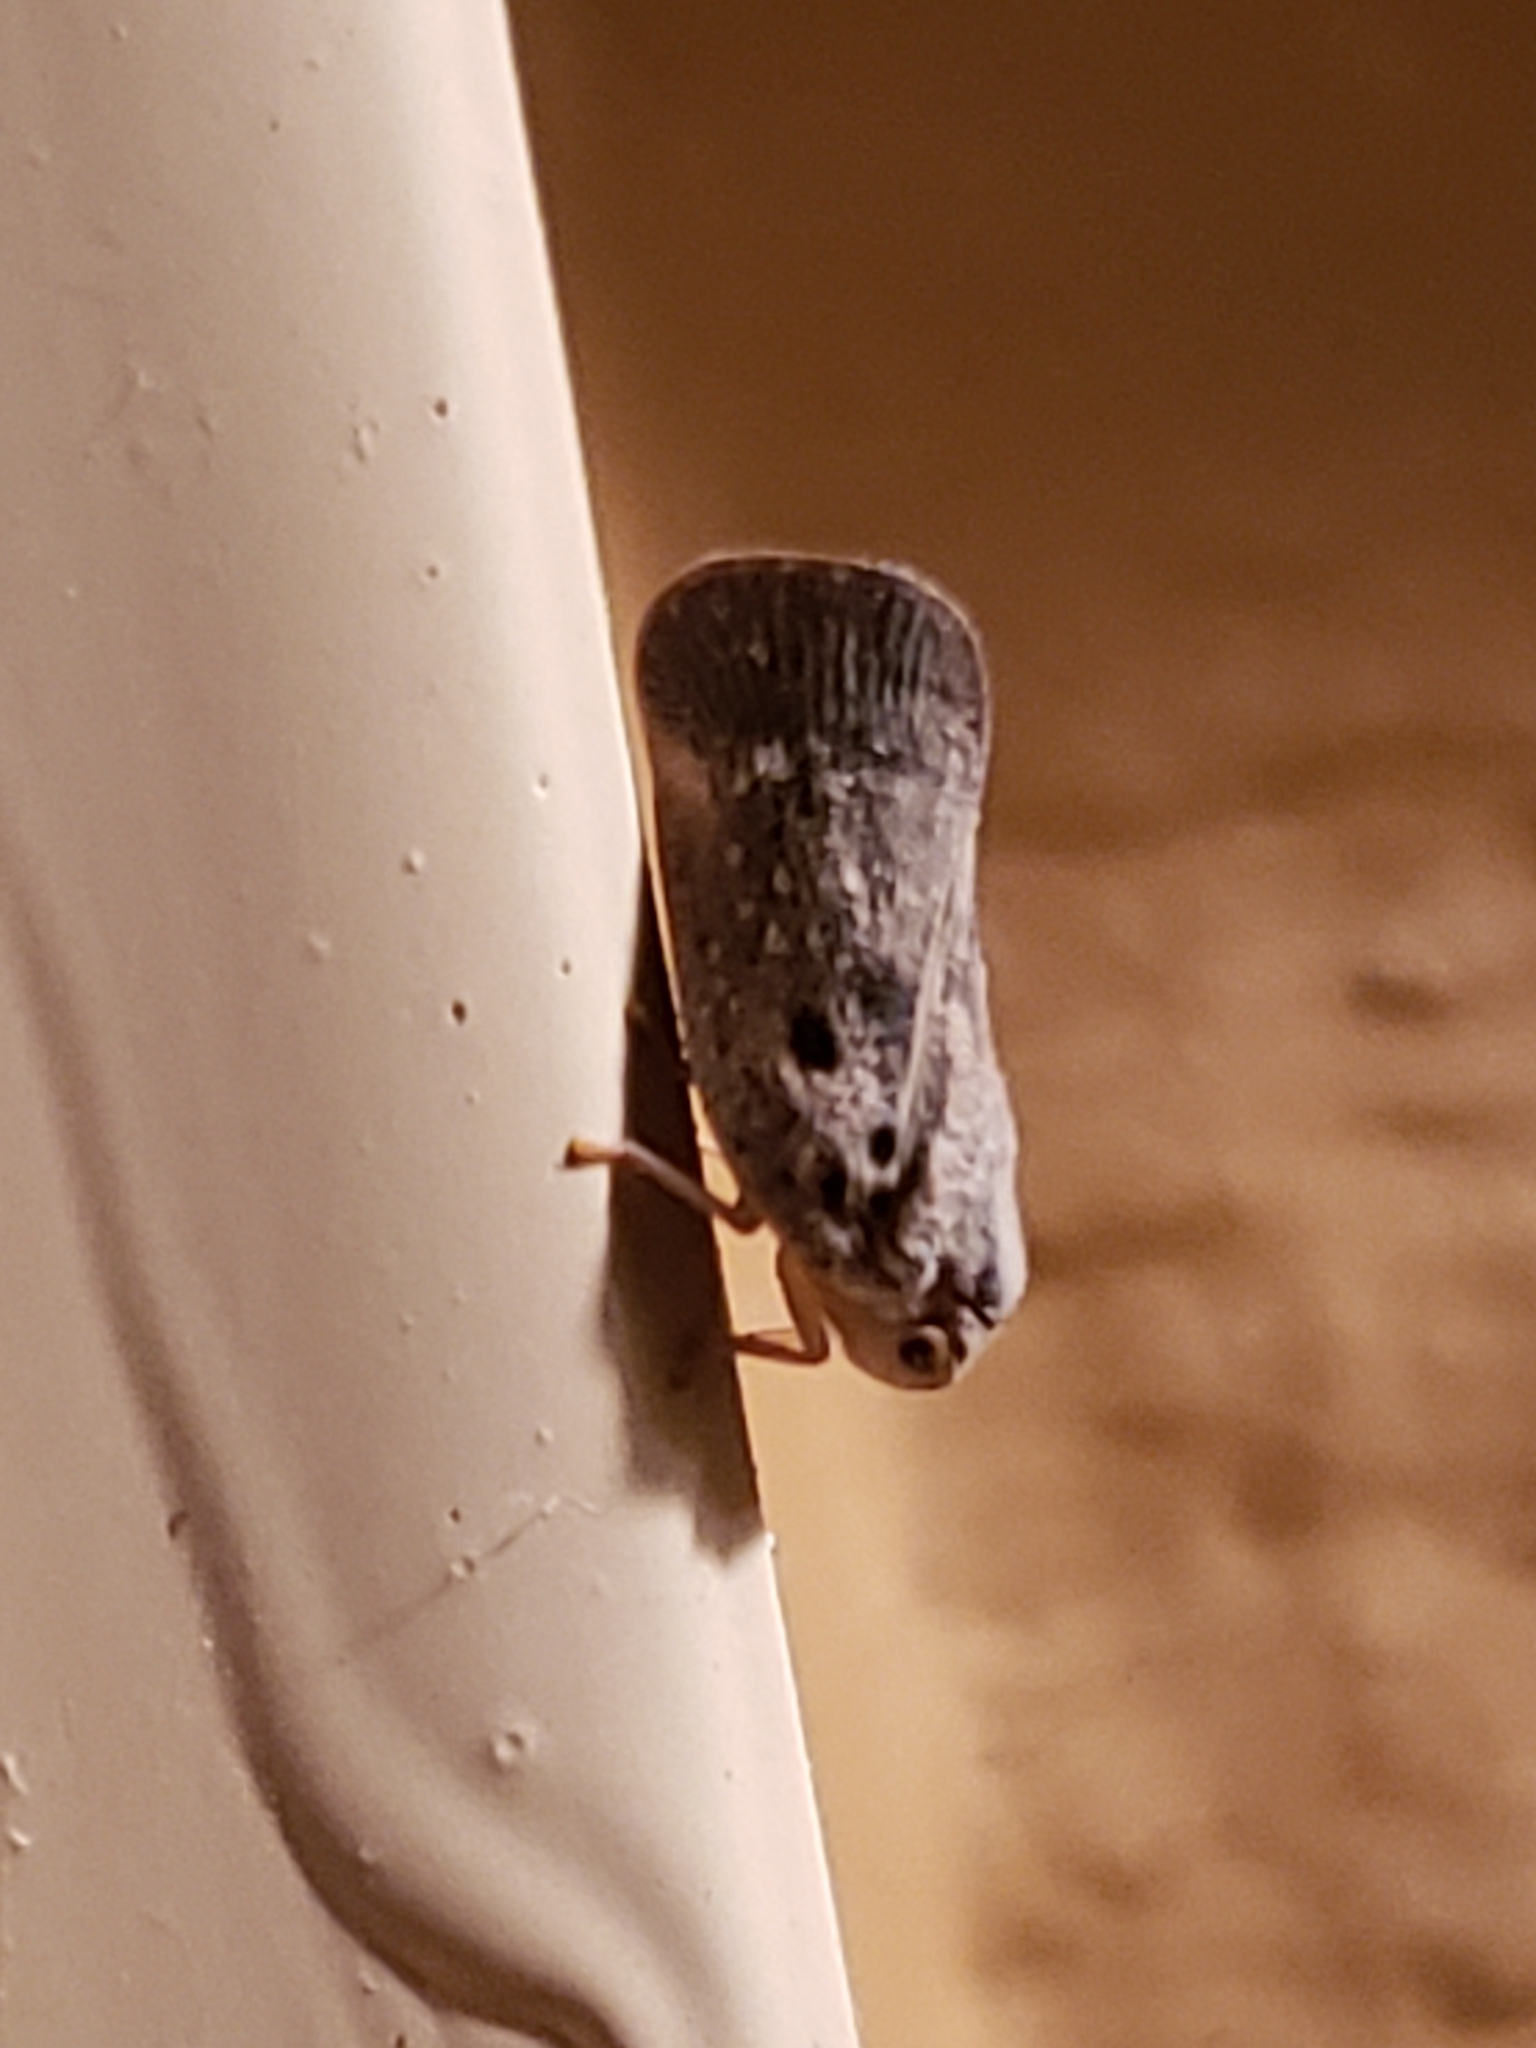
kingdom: Animalia
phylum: Arthropoda
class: Insecta
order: Hemiptera
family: Flatidae
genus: Metcalfa
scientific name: Metcalfa pruinosa
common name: Citrus flatid planthopper
